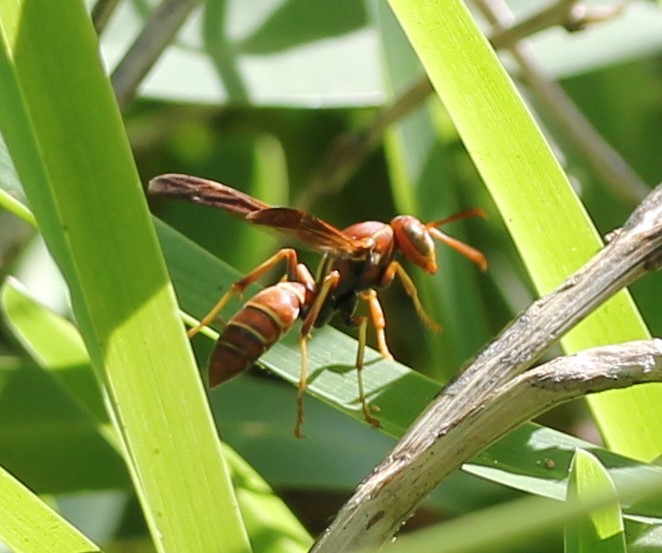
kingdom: Animalia
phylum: Arthropoda
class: Insecta
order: Hymenoptera
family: Eumenidae
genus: Polistes
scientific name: Polistes dorsalis
